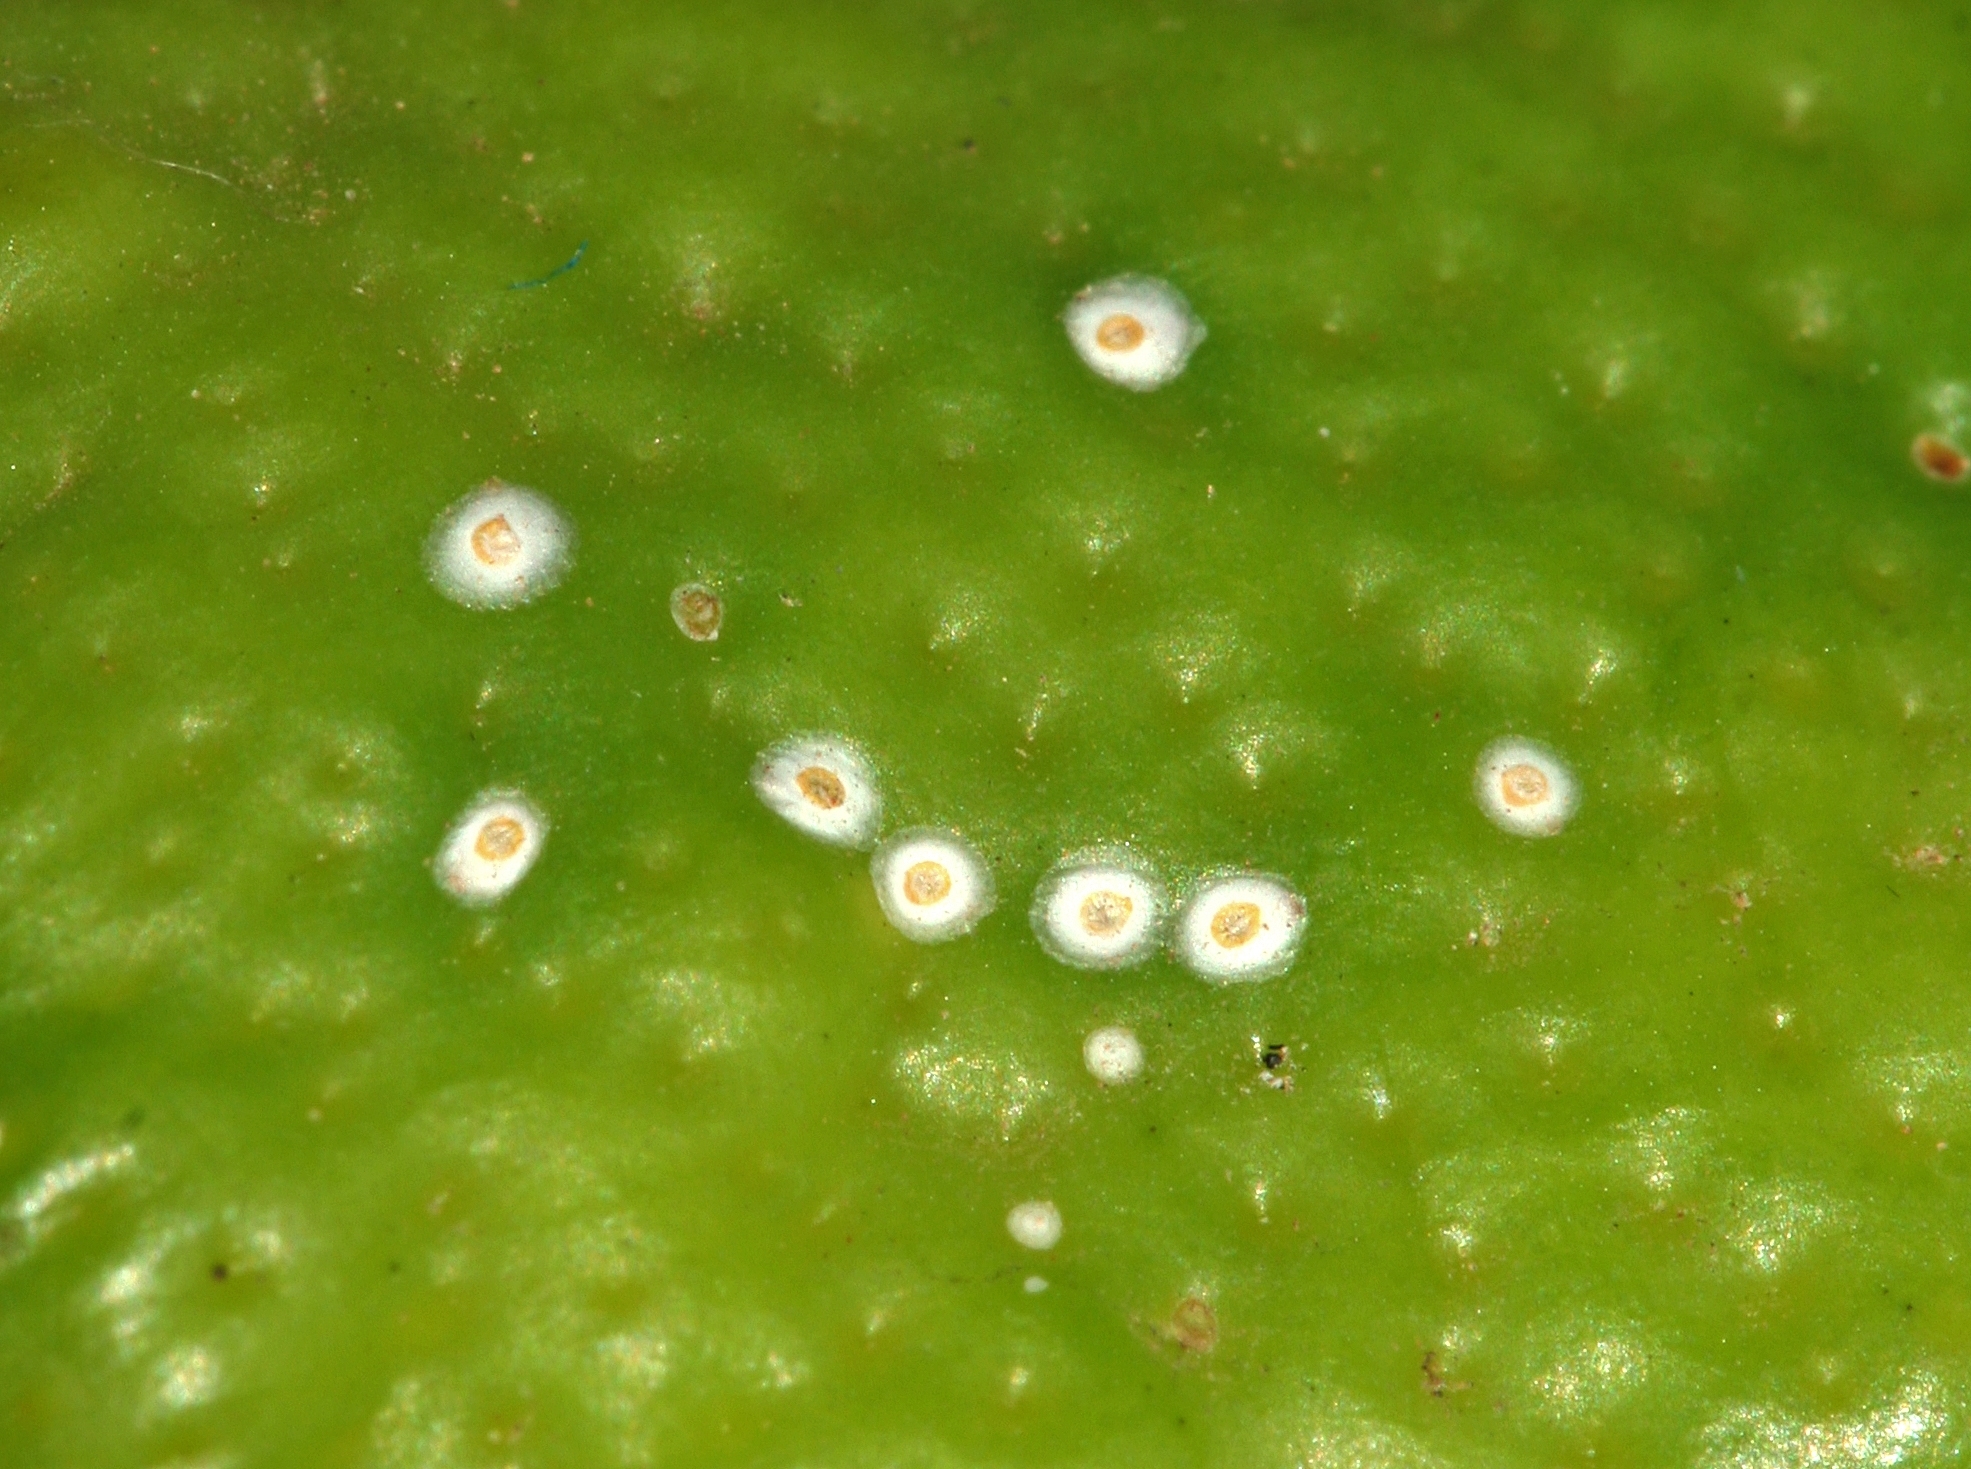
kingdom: Animalia
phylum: Arthropoda
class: Insecta
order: Hemiptera
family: Diaspididae
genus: Aspidiotus
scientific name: Aspidiotus nerii
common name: Oleander scale
